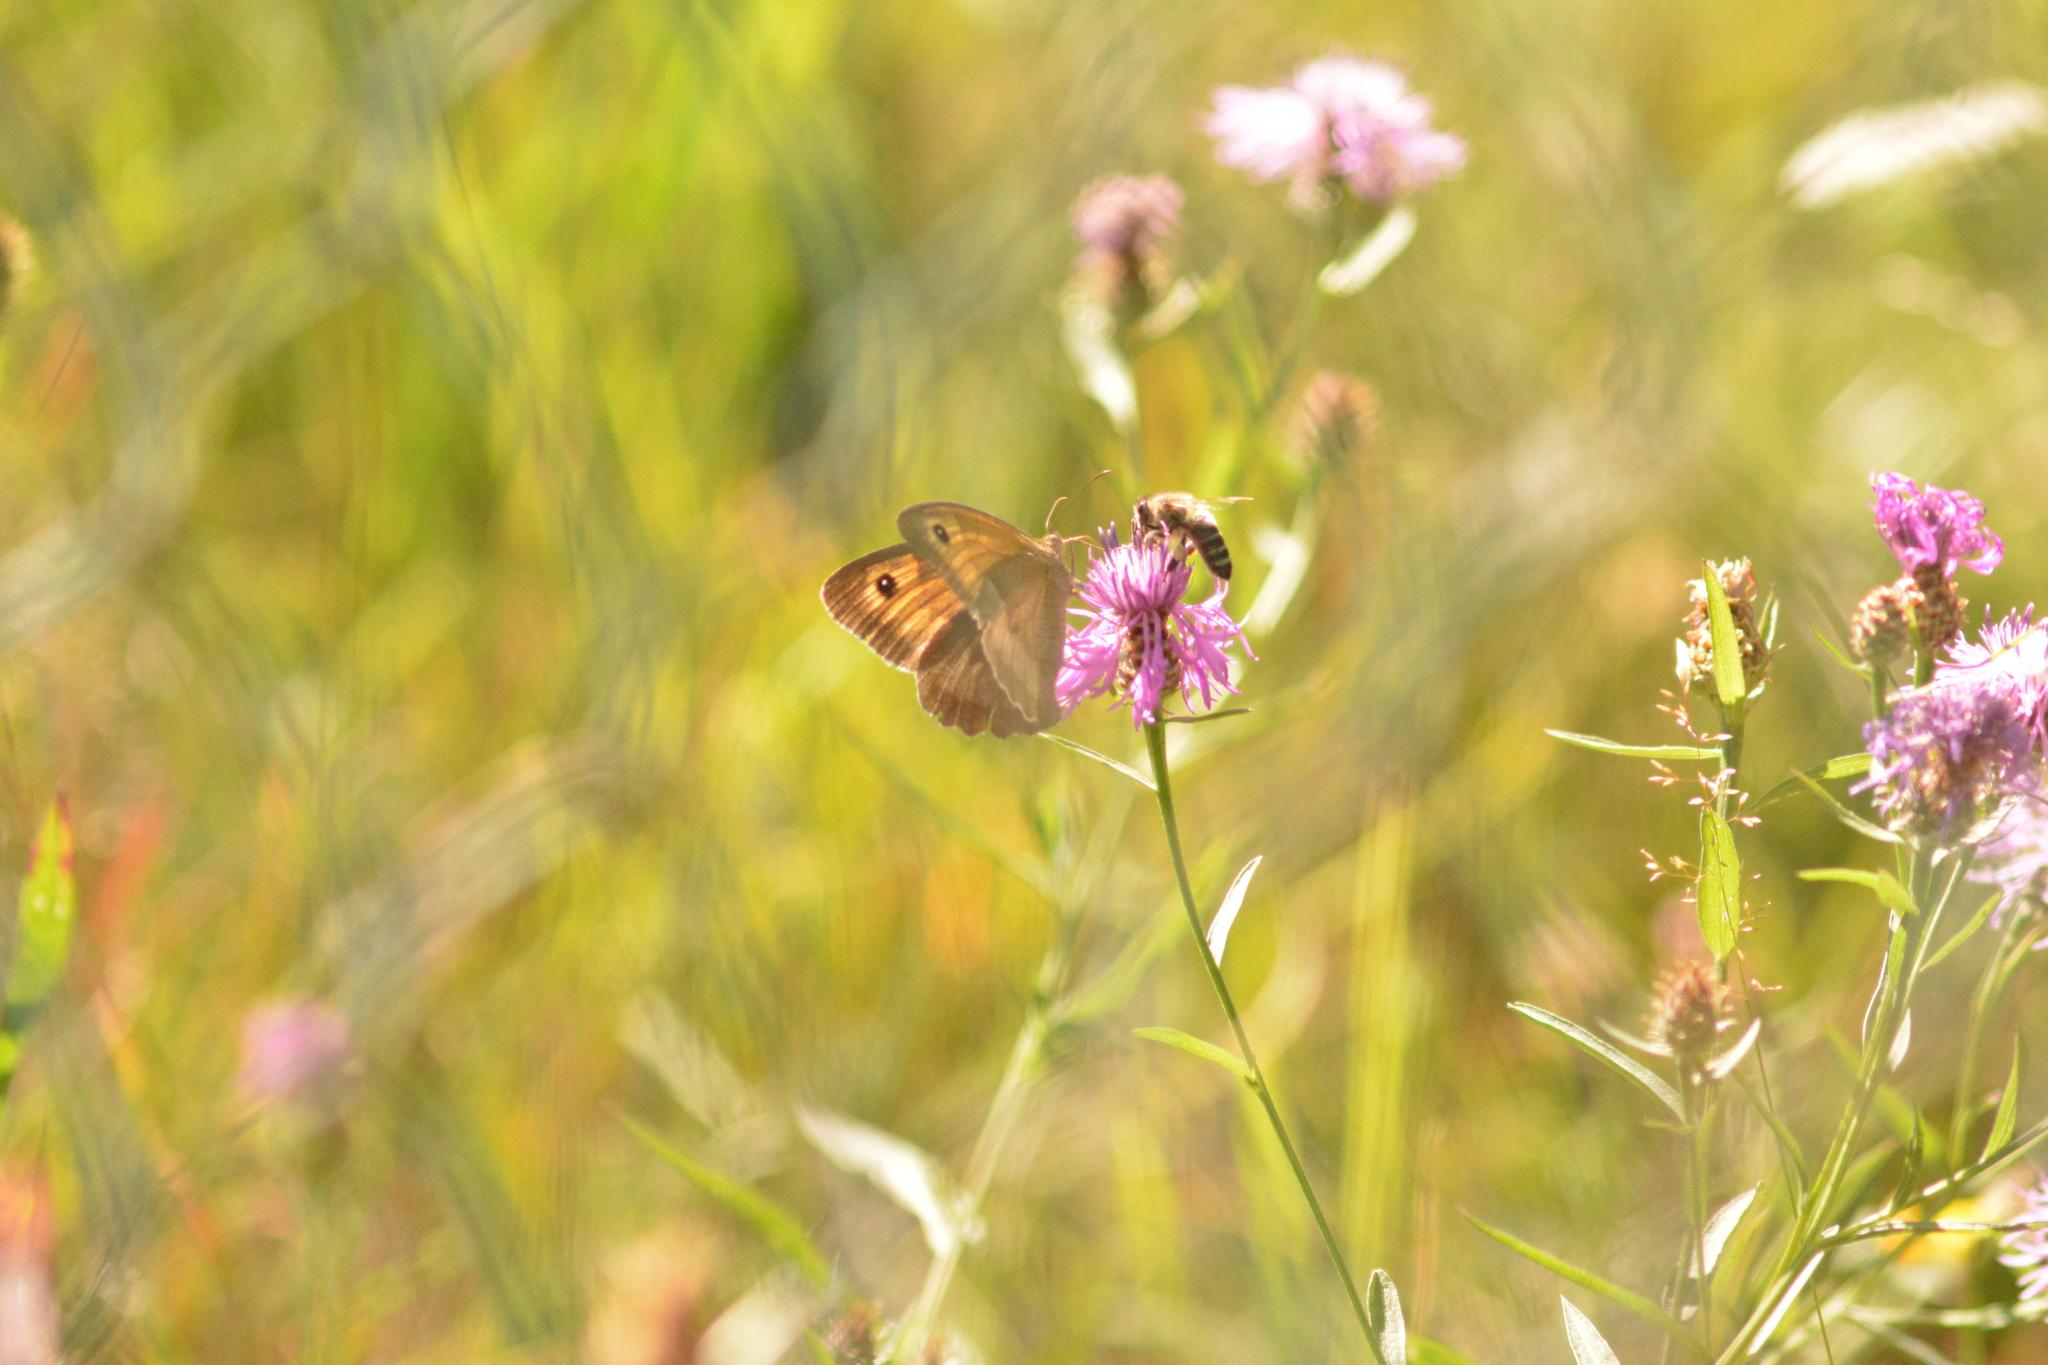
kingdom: Animalia
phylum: Arthropoda
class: Insecta
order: Lepidoptera
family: Nymphalidae
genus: Maniola
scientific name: Maniola jurtina
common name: Meadow brown
